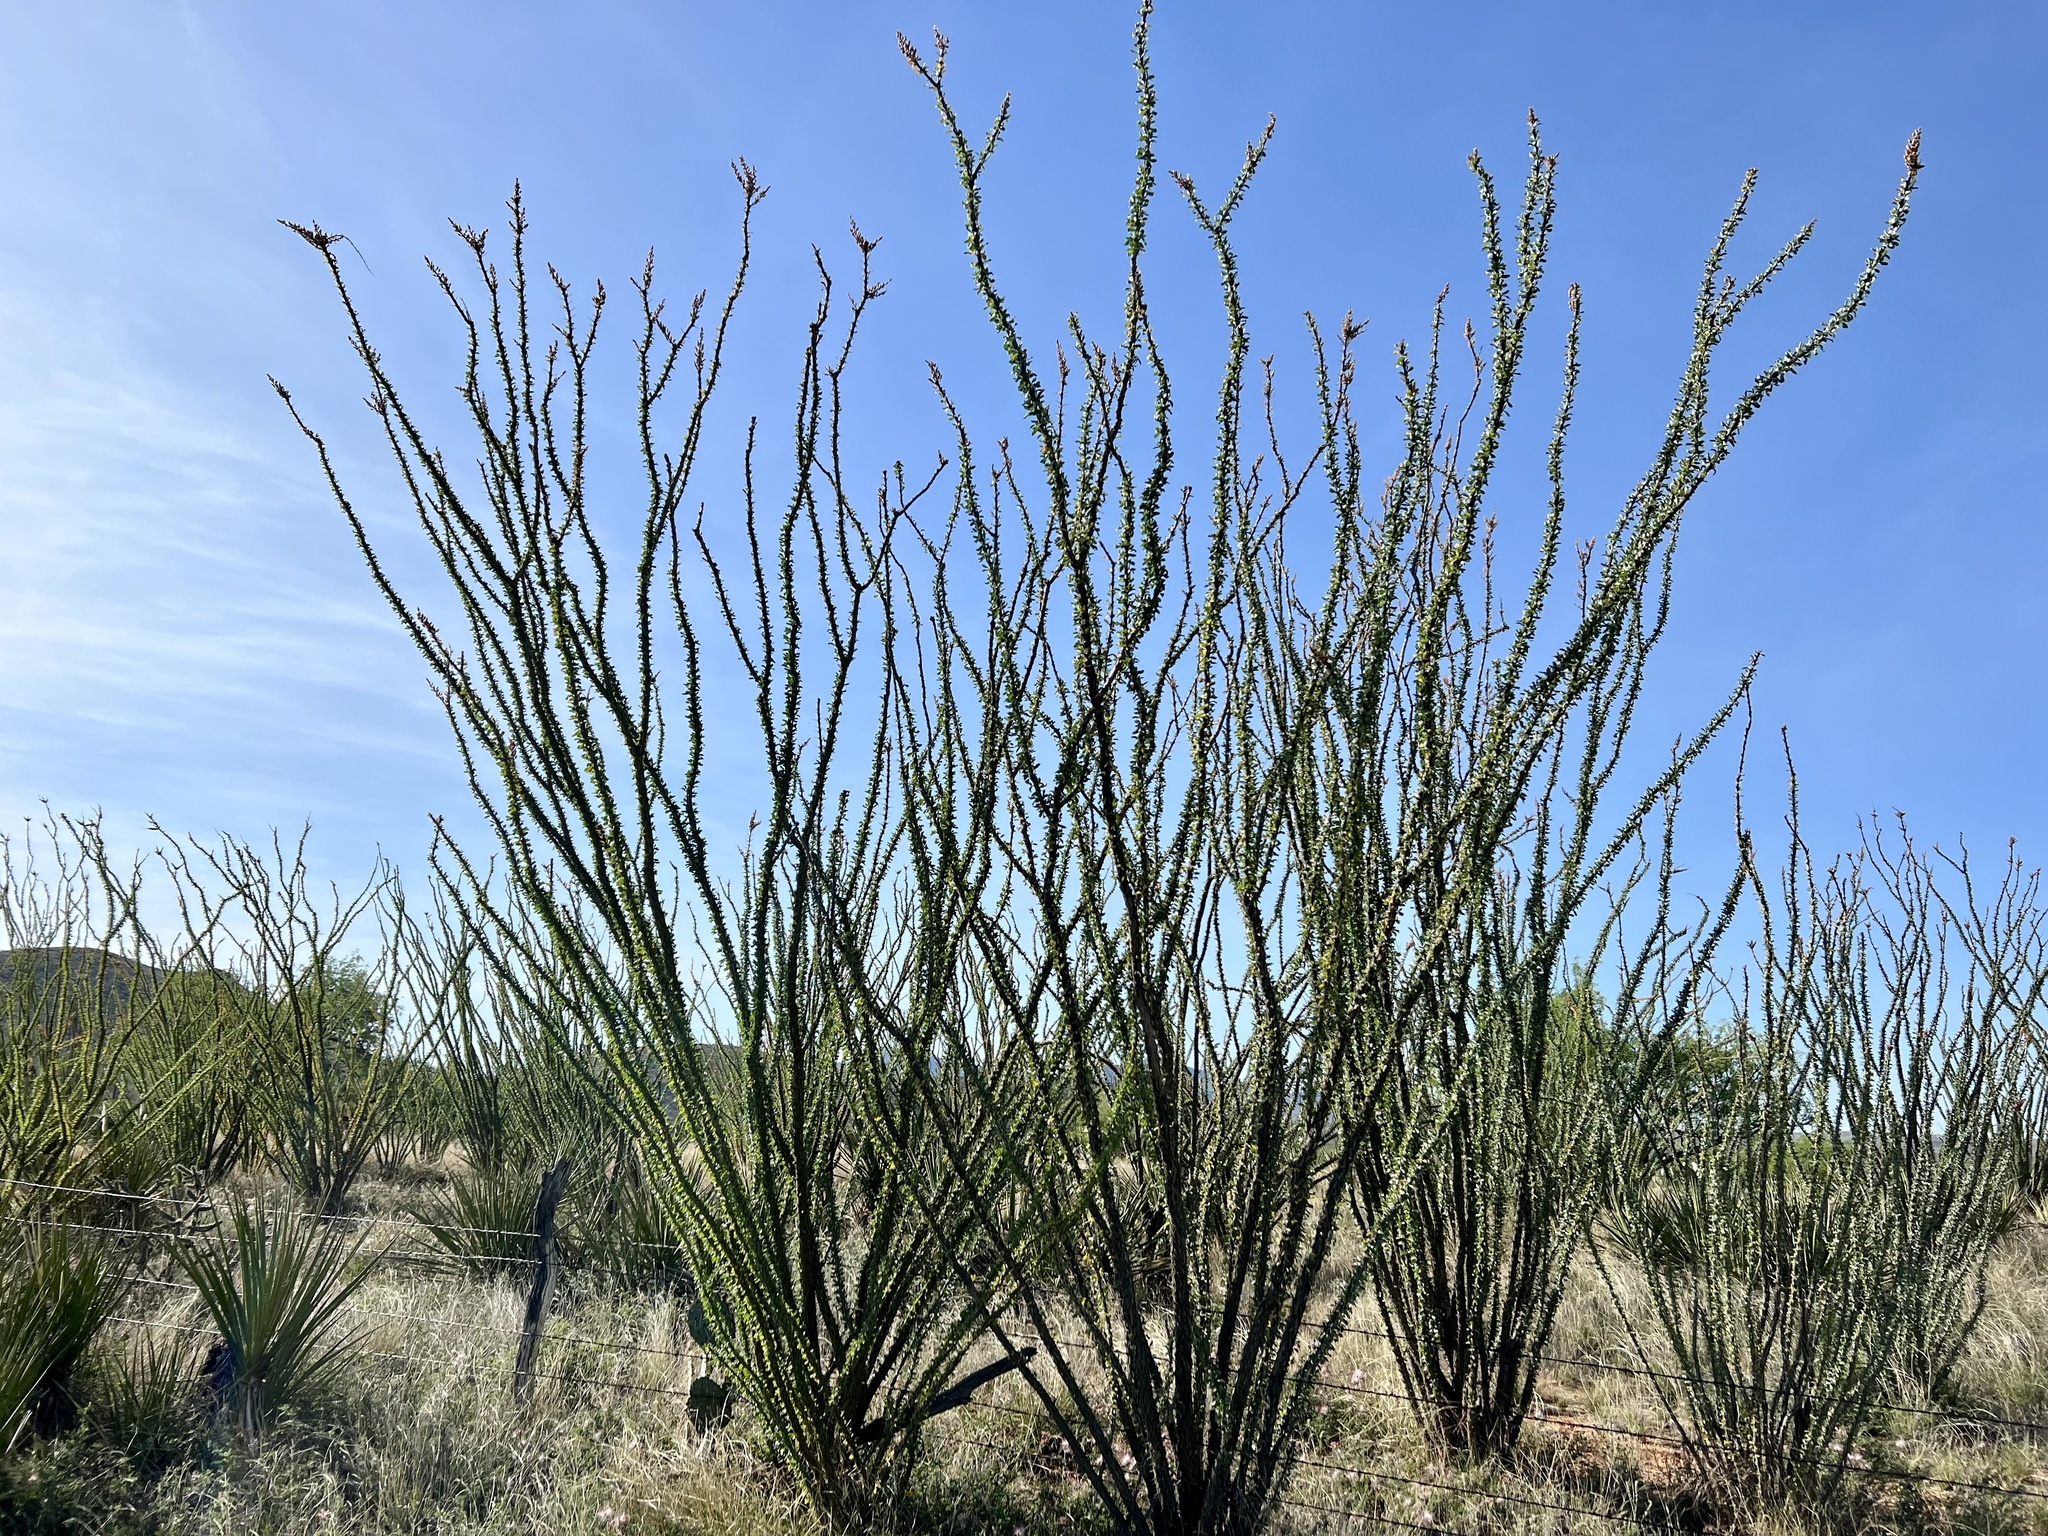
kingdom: Plantae
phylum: Tracheophyta
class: Magnoliopsida
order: Ericales
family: Fouquieriaceae
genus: Fouquieria
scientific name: Fouquieria splendens
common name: Vine-cactus
